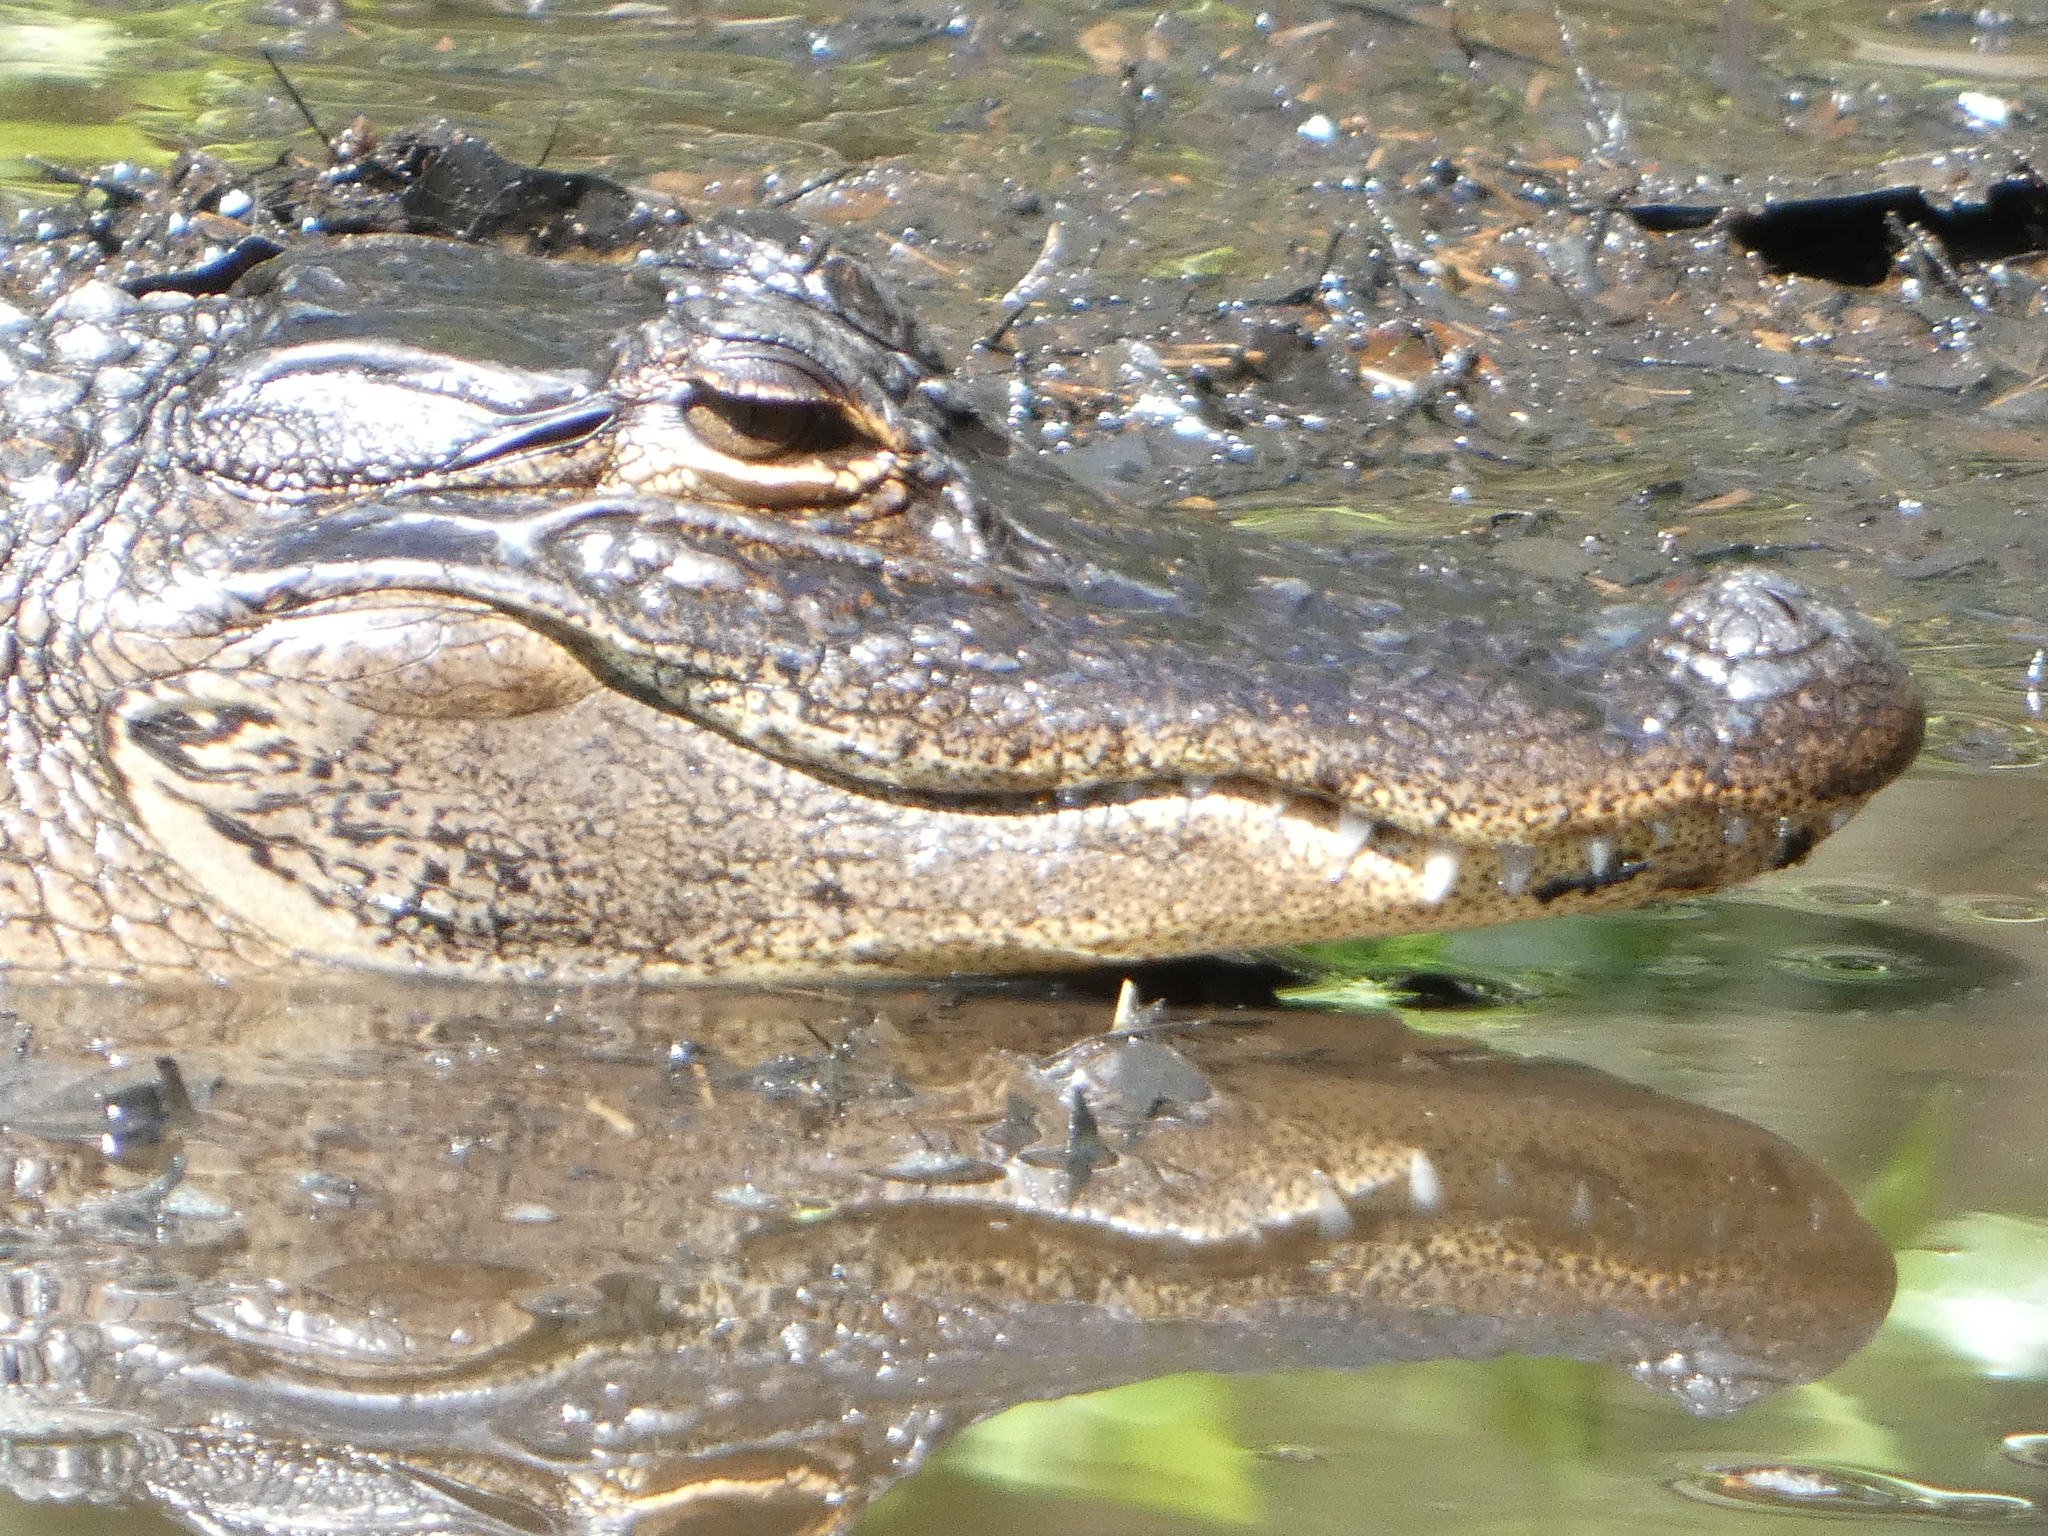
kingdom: Animalia
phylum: Chordata
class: Crocodylia
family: Alligatoridae
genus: Alligator
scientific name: Alligator mississippiensis
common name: American alligator
